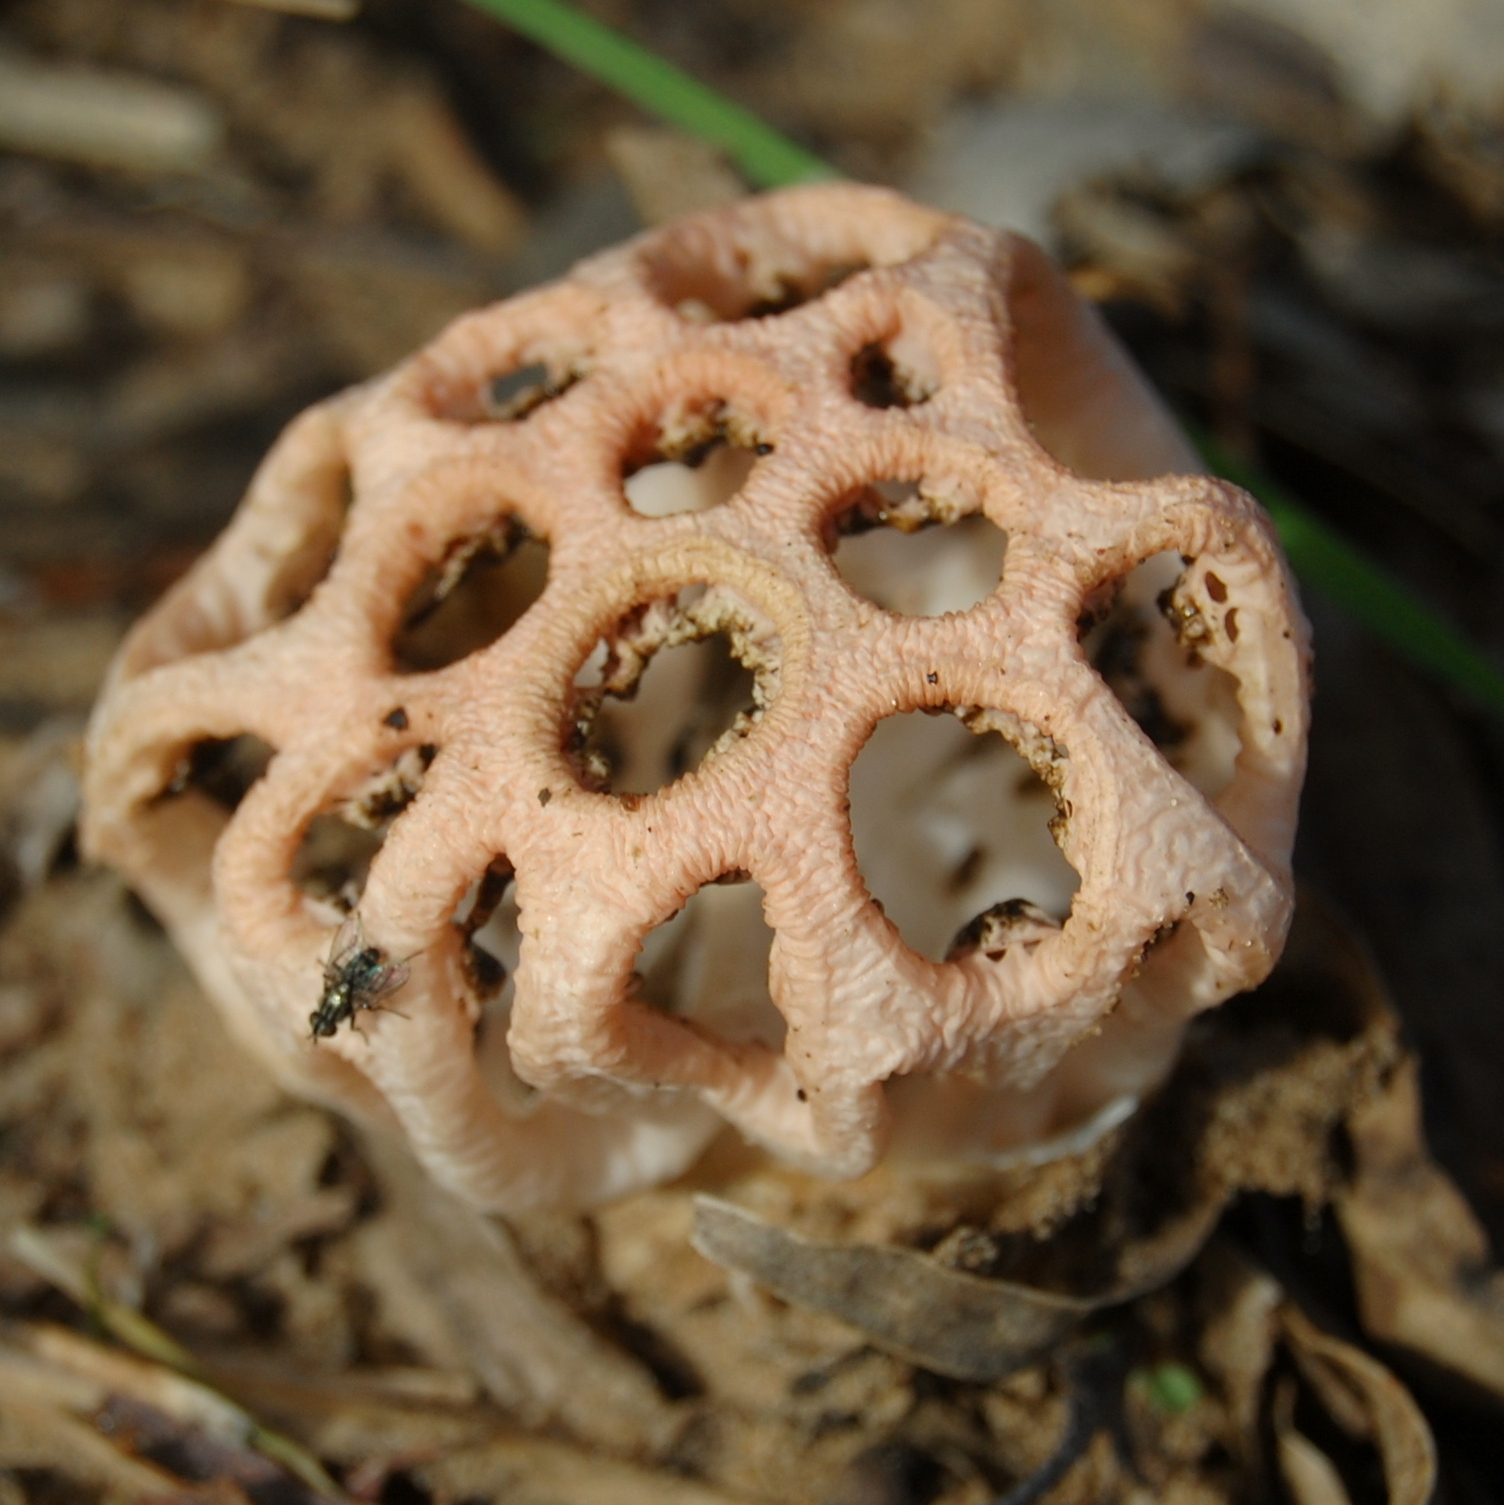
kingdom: Fungi
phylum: Basidiomycota
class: Agaricomycetes
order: Phallales
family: Phallaceae
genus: Clathrus
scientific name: Clathrus argentinus
